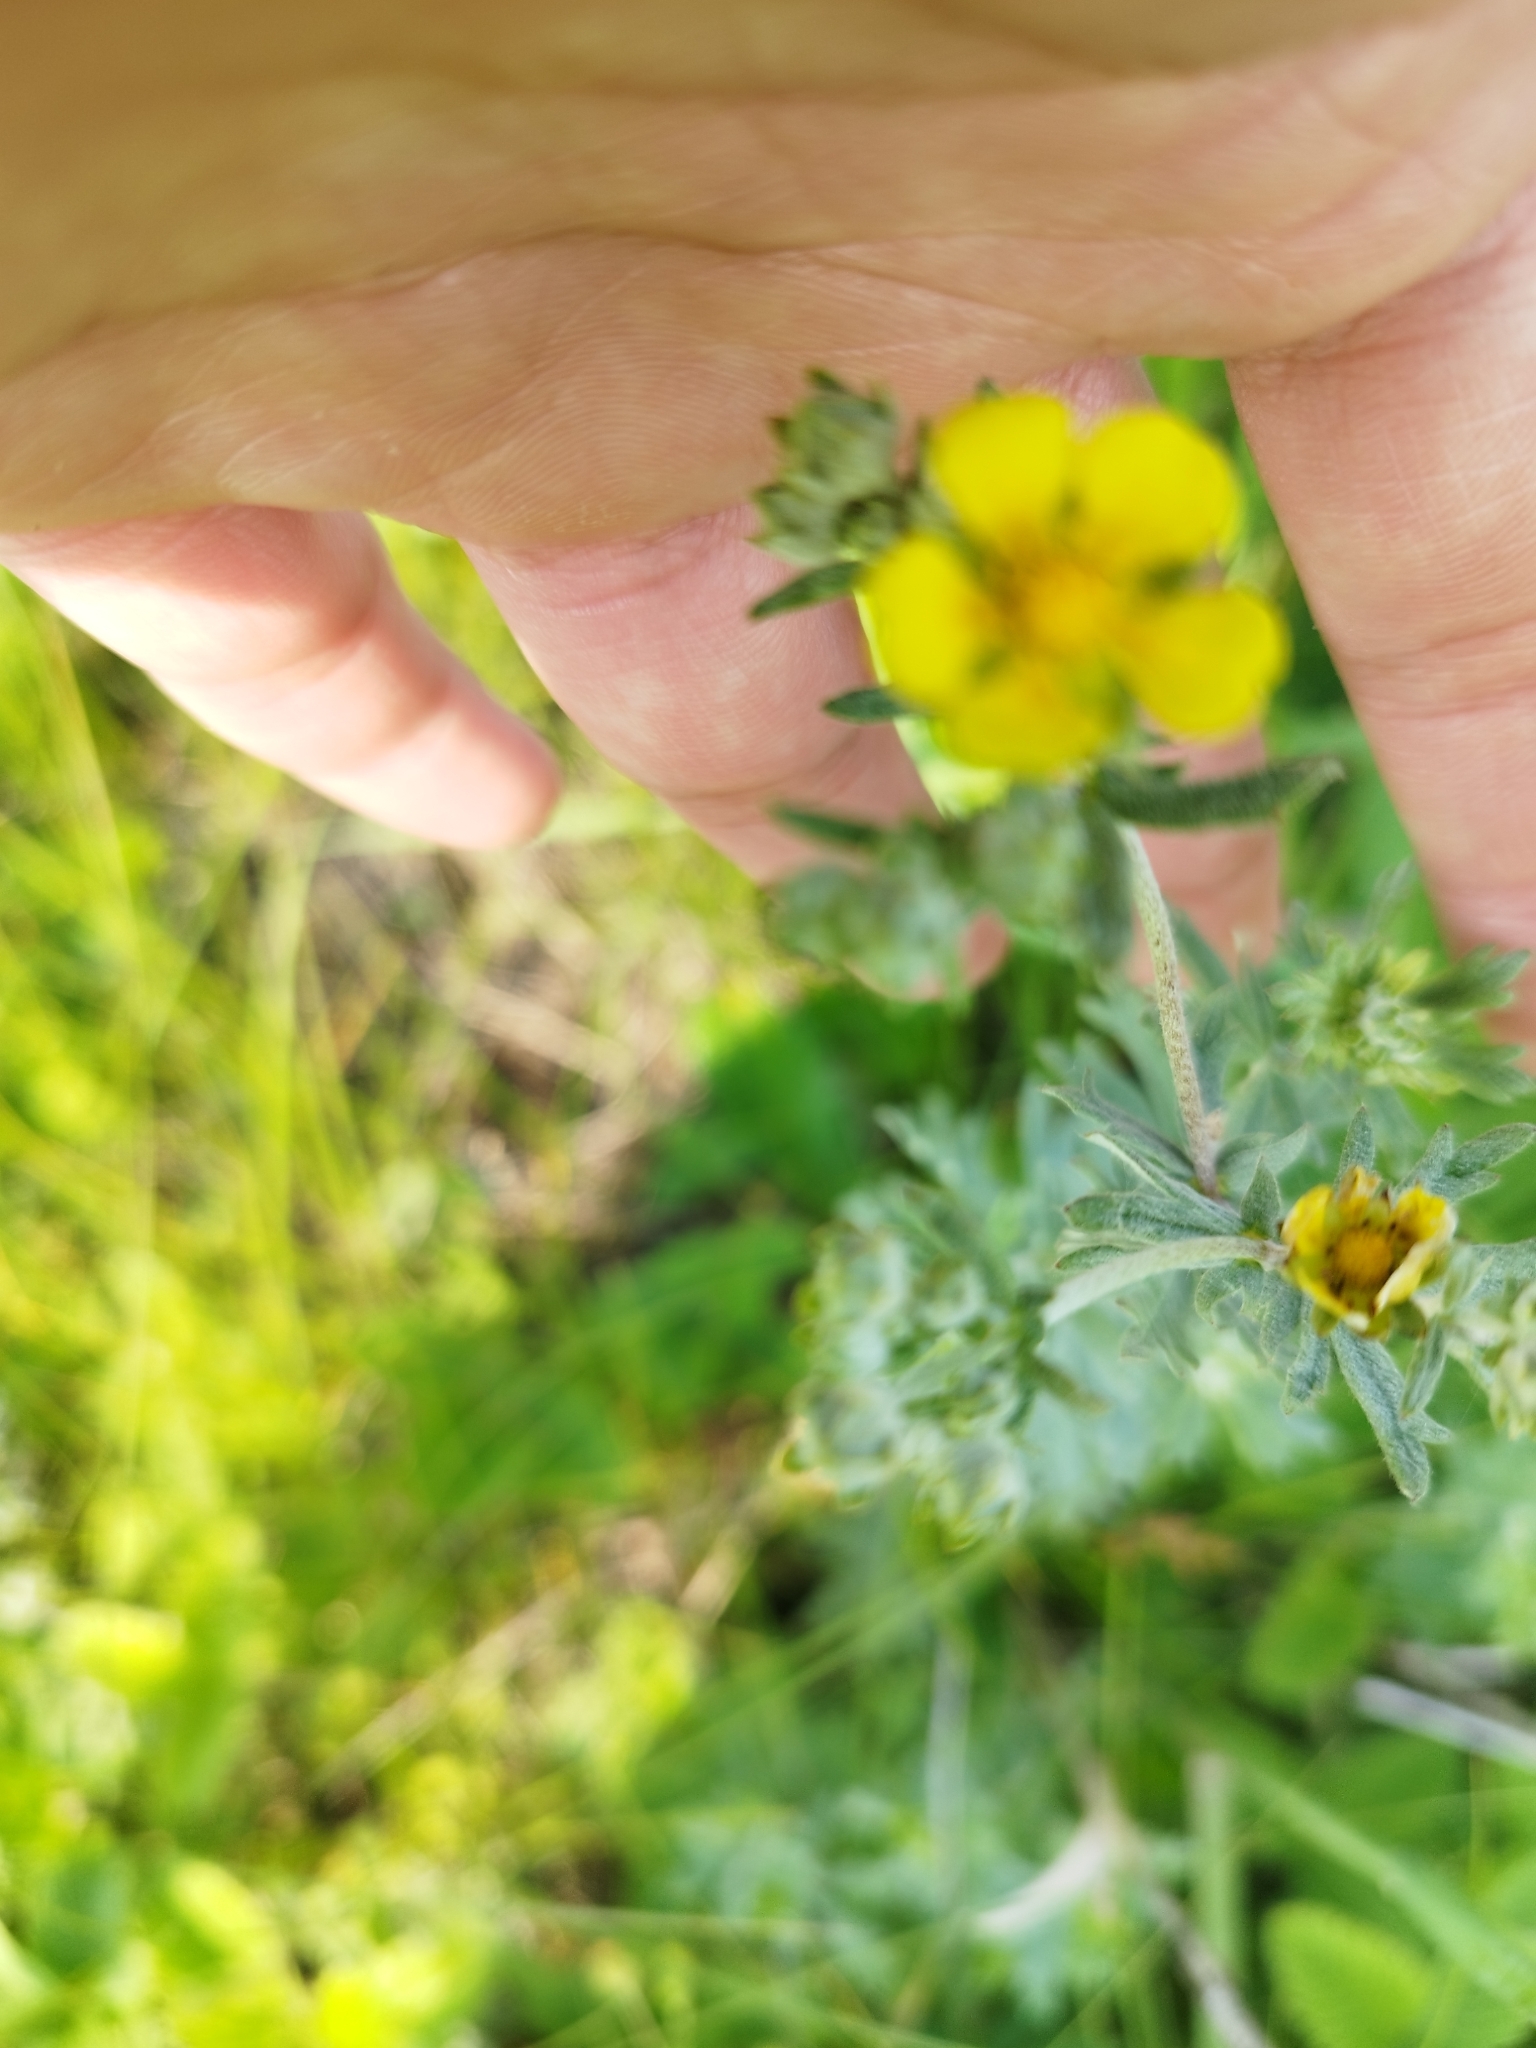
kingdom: Plantae
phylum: Tracheophyta
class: Magnoliopsida
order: Rosales
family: Rosaceae
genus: Potentilla
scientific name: Potentilla argentea
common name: Hoary cinquefoil
